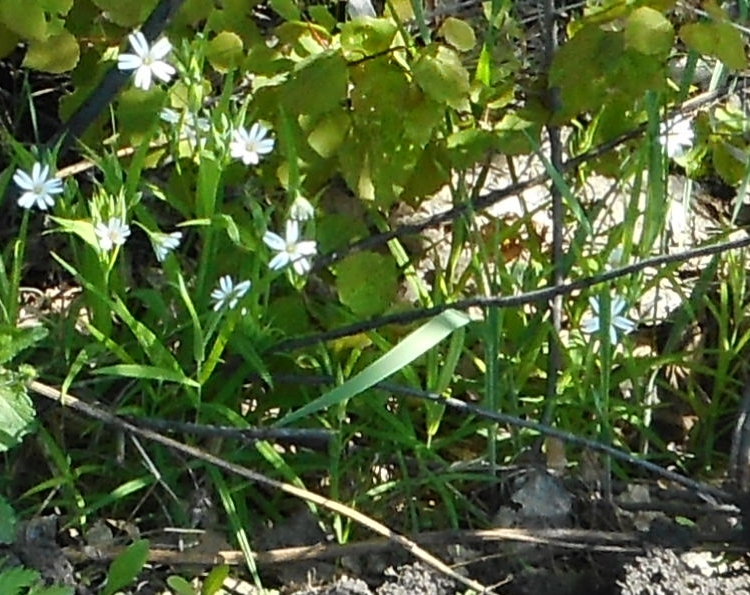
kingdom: Plantae
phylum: Tracheophyta
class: Magnoliopsida
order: Caryophyllales
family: Caryophyllaceae
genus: Rabelera
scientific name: Rabelera holostea
